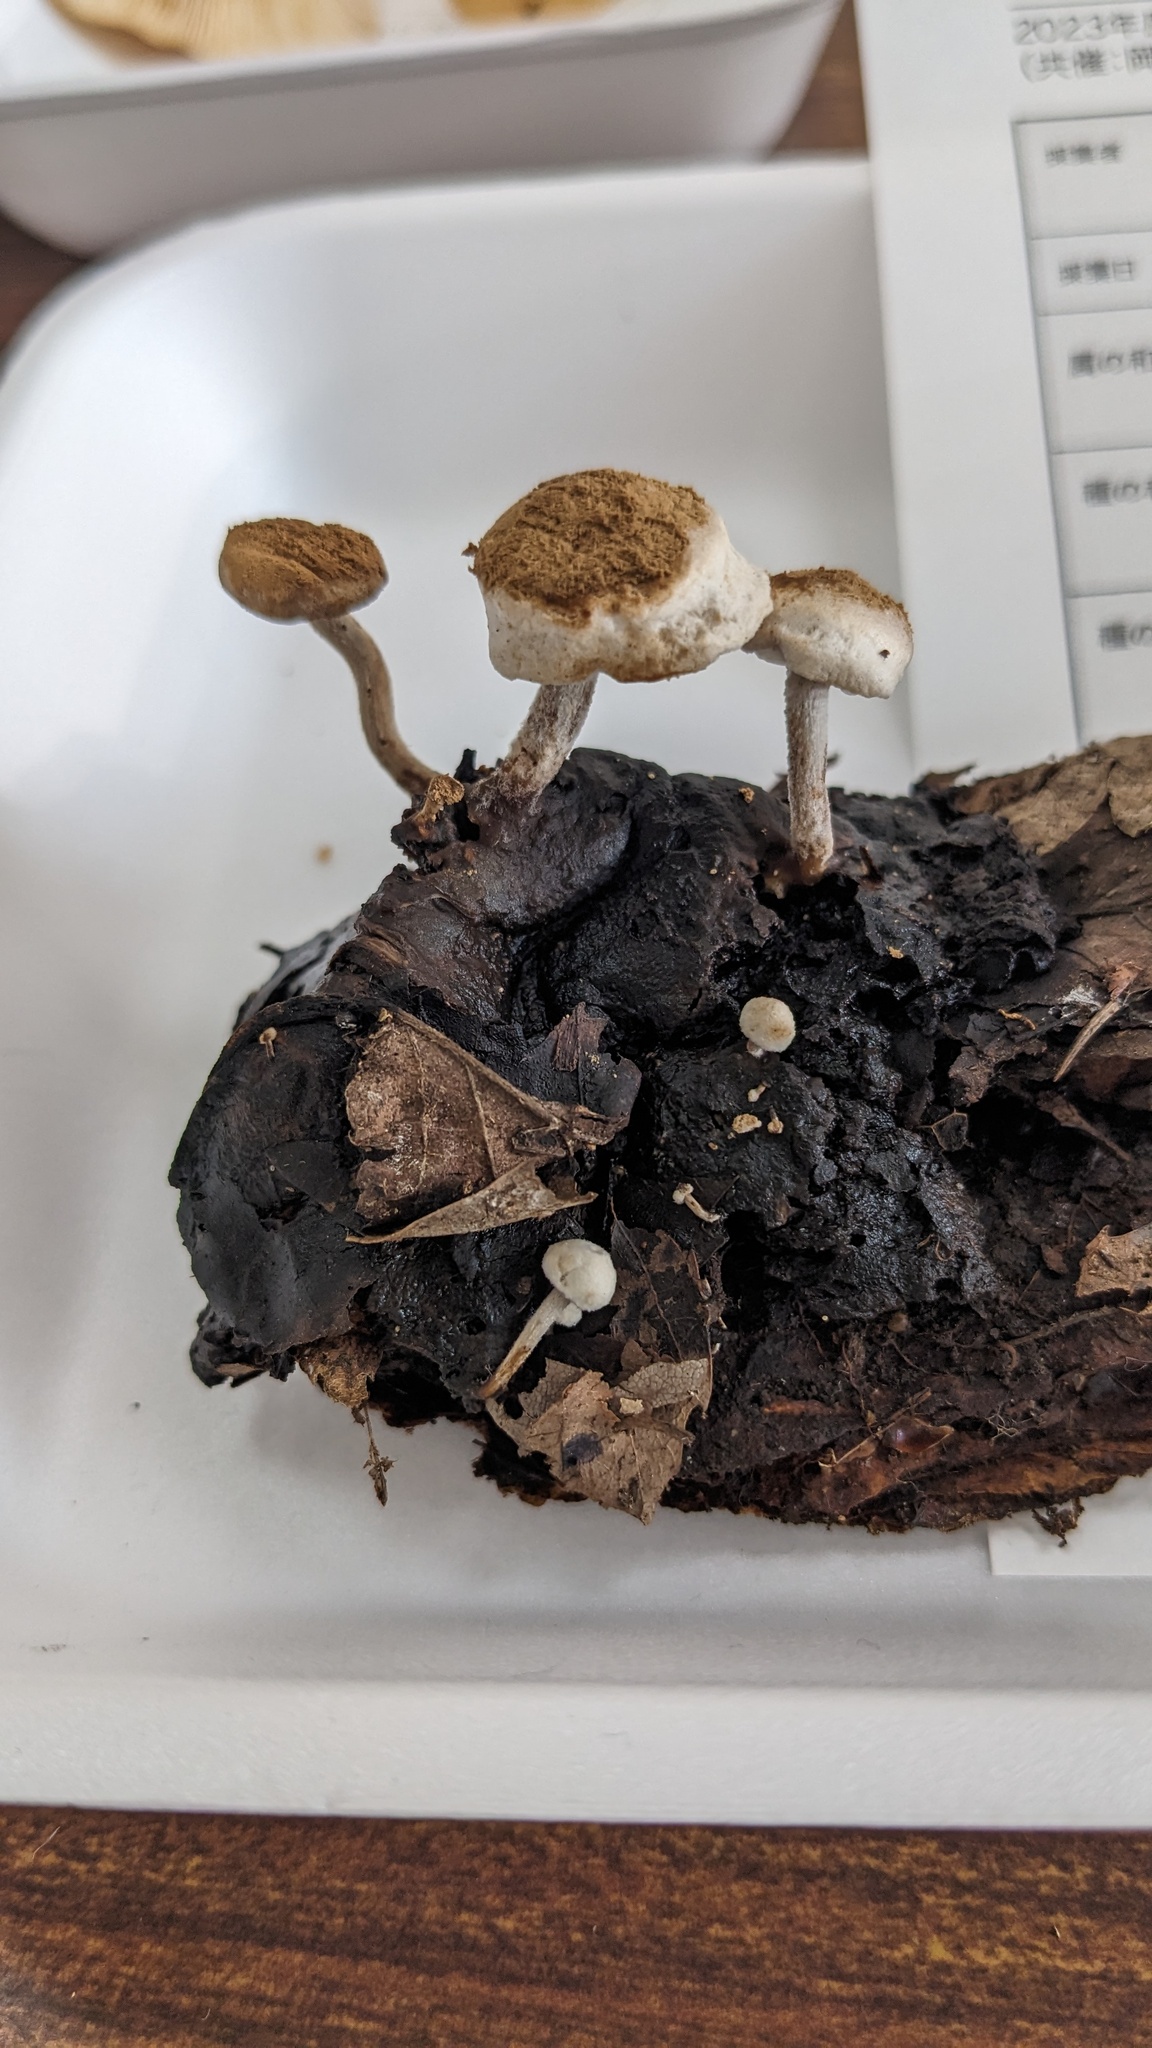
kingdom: Fungi
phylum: Basidiomycota
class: Agaricomycetes
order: Agaricales
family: Lyophyllaceae
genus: Asterophora
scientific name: Asterophora lycoperdoides
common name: Pick-a-back toadstool
